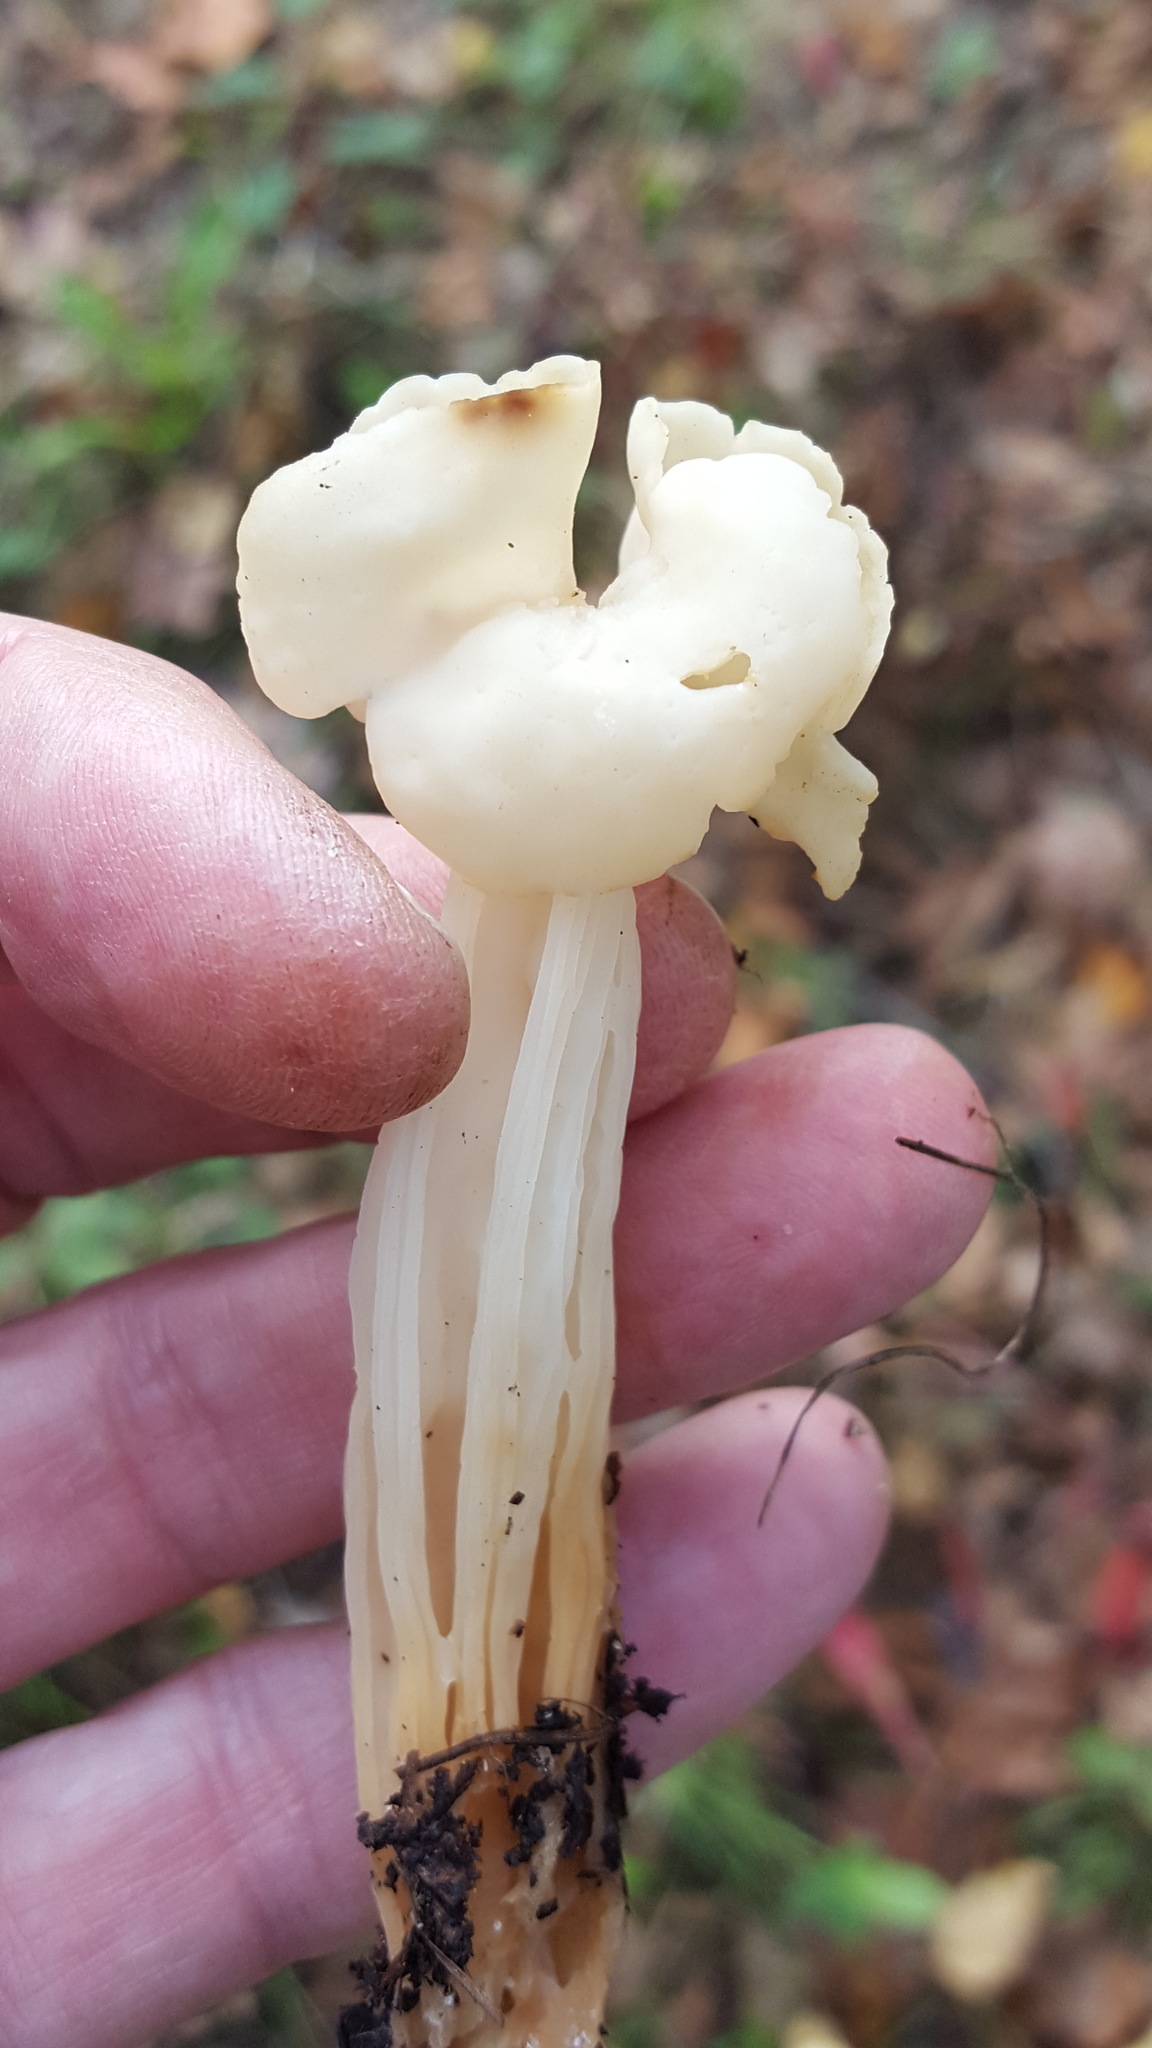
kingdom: Fungi
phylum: Ascomycota
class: Pezizomycetes
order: Pezizales
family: Helvellaceae
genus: Helvella
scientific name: Helvella crispa
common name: White saddle
